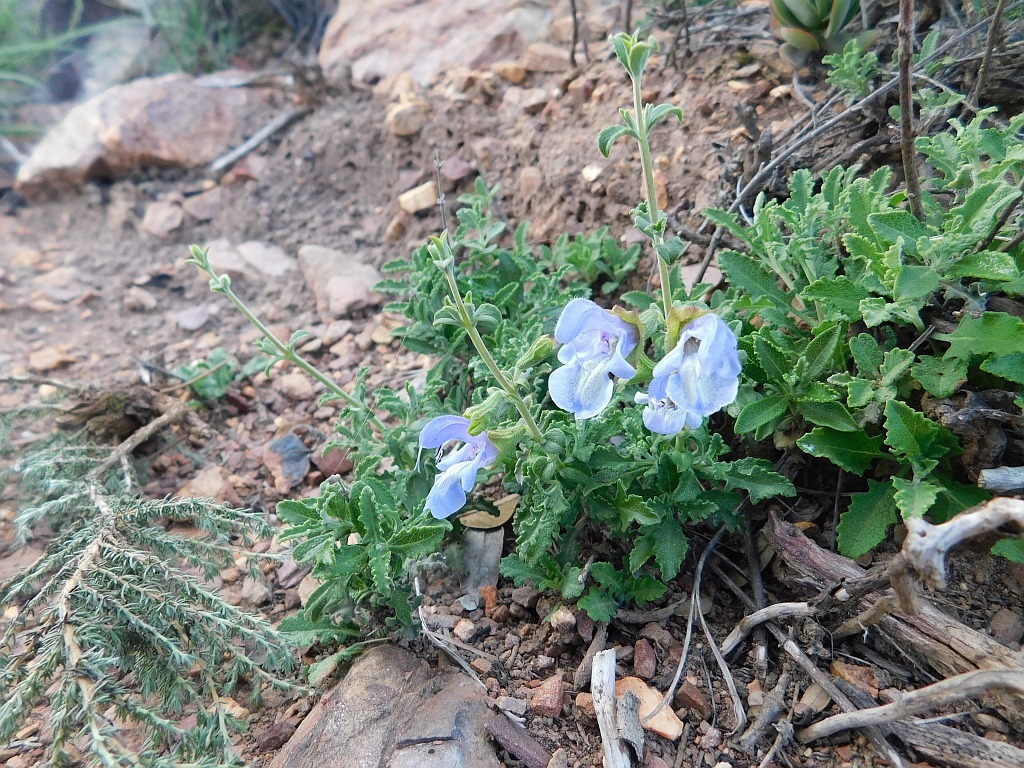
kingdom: Plantae
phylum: Tracheophyta
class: Magnoliopsida
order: Lamiales
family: Lamiaceae
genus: Salvia
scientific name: Salvia africana
